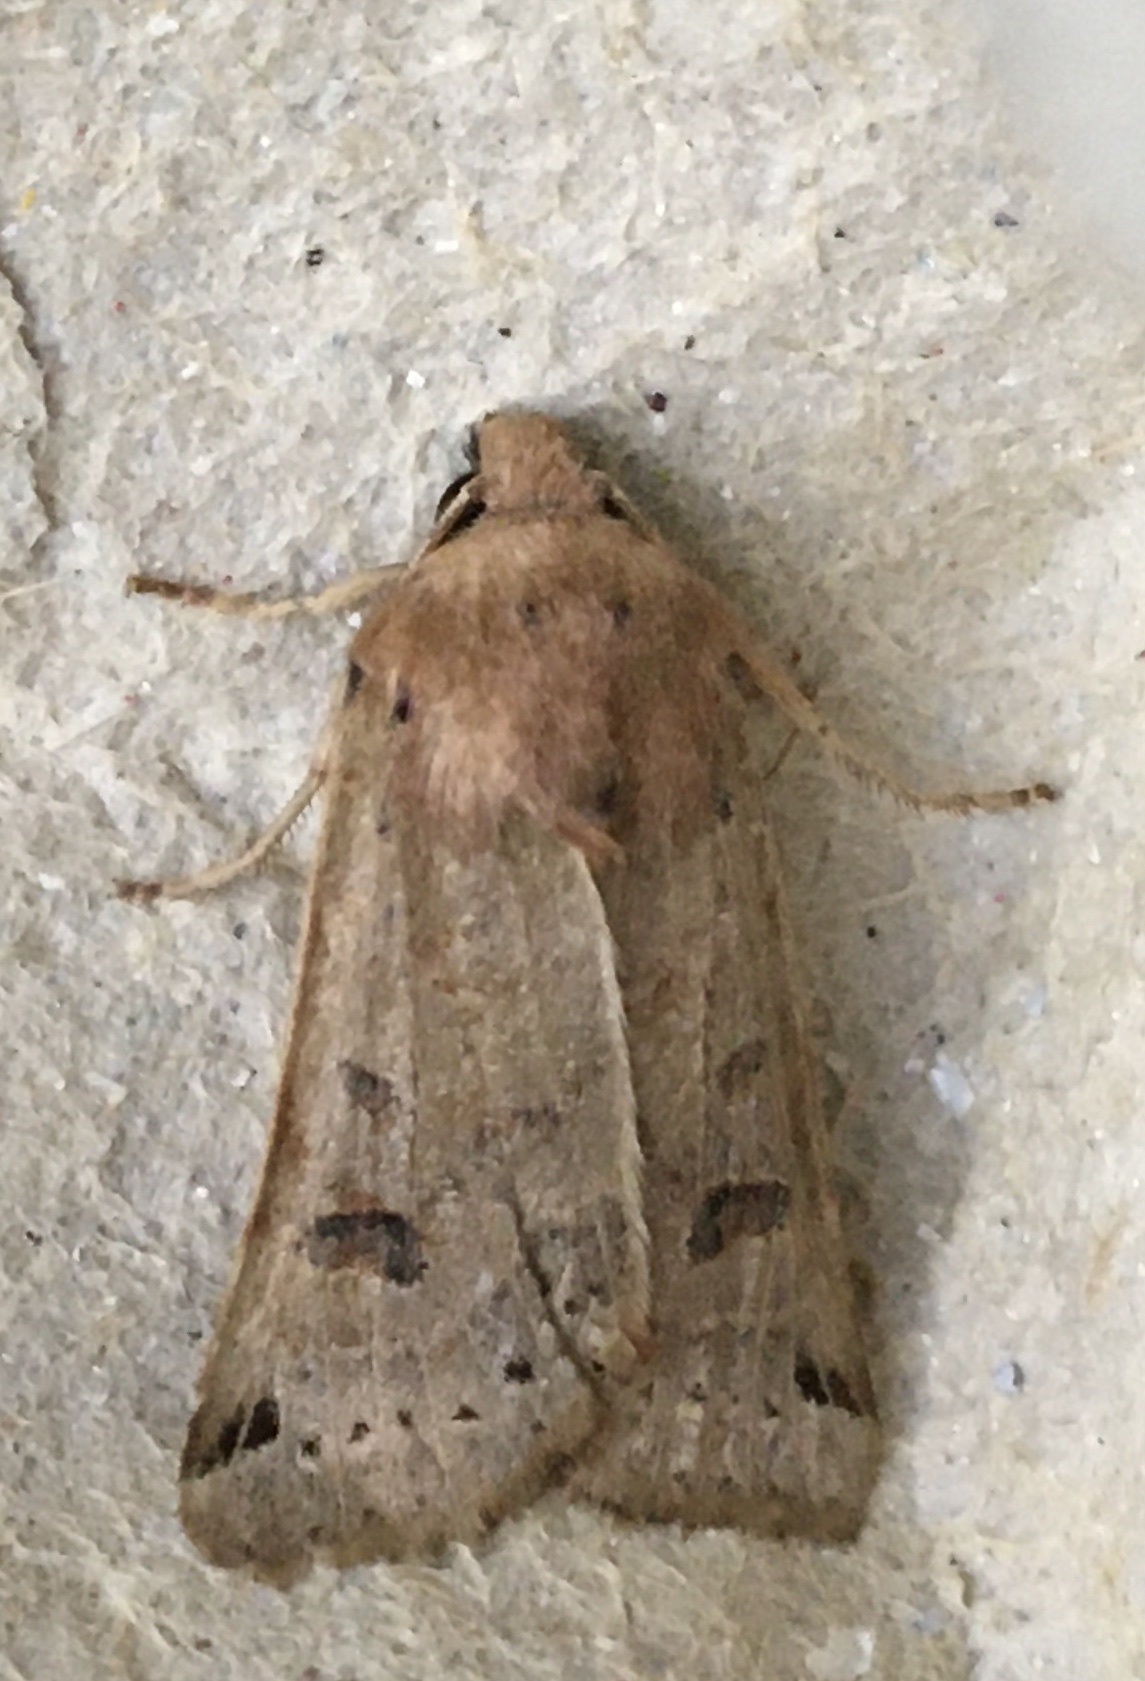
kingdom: Animalia
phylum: Arthropoda
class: Insecta
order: Lepidoptera
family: Noctuidae
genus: Agrochola
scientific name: Agrochola lunosa
